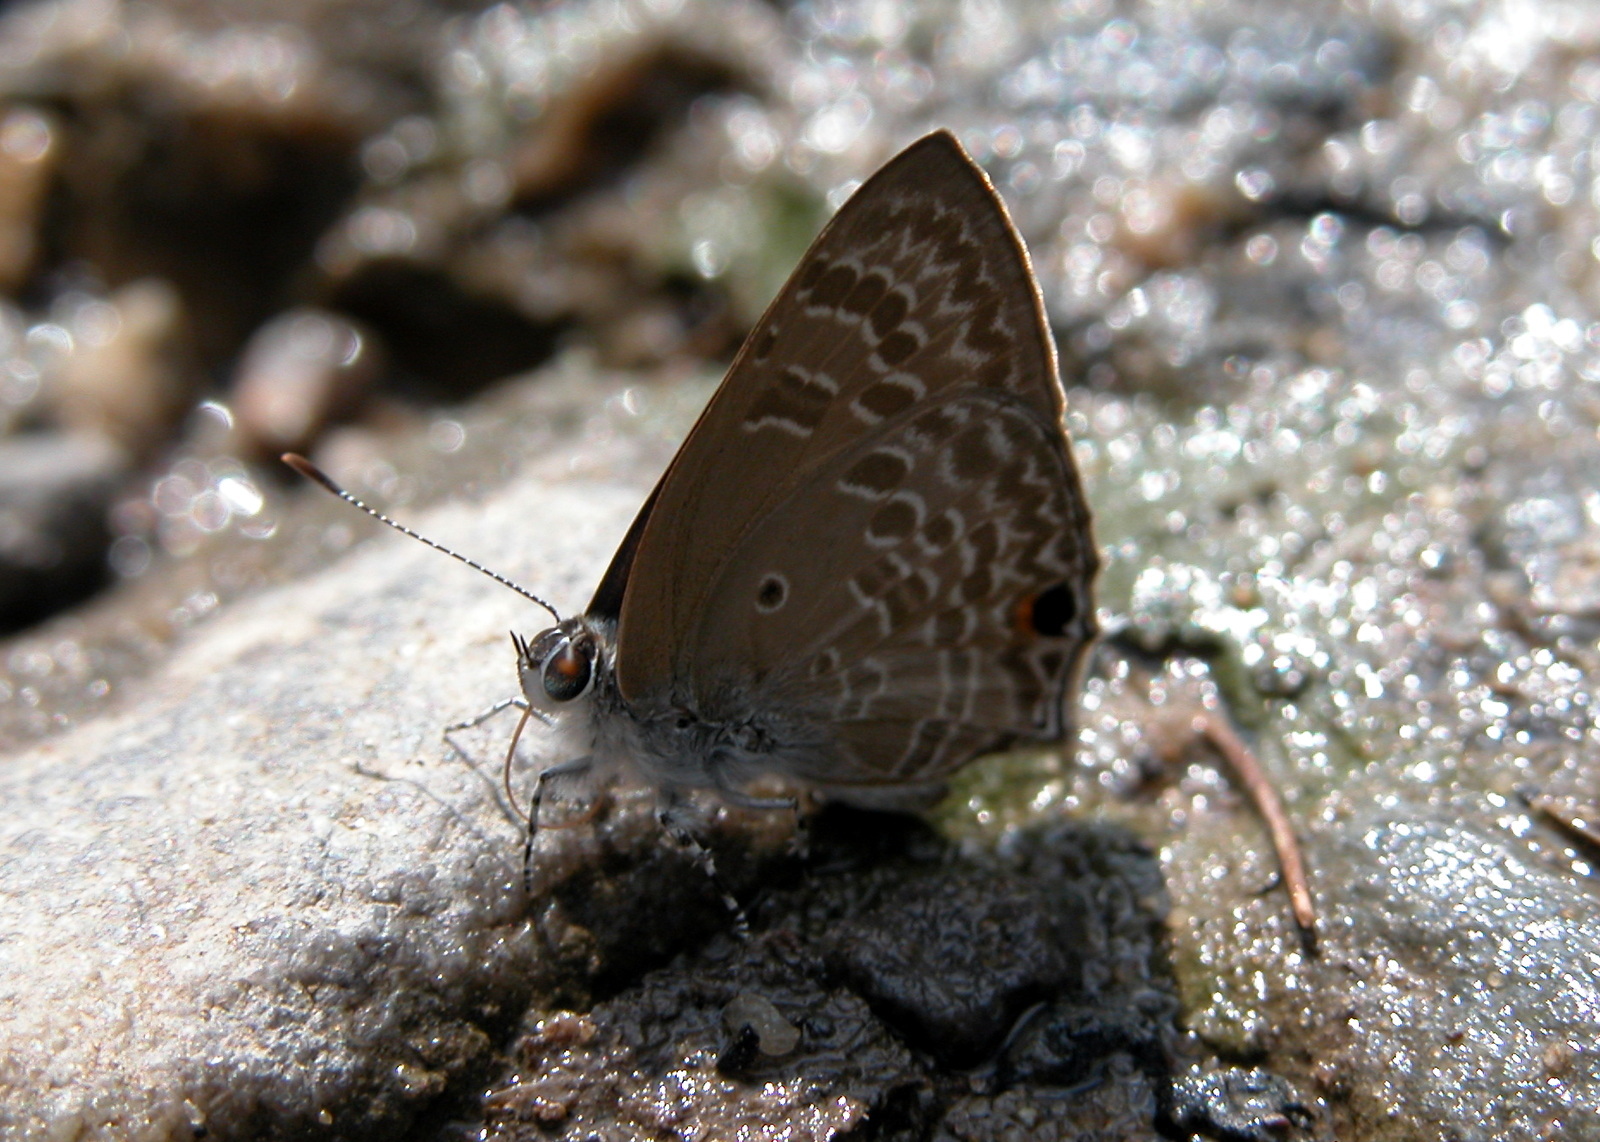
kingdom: Animalia
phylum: Arthropoda
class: Insecta
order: Lepidoptera
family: Lycaenidae
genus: Anthene
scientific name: Anthene lycaenina
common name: Pointed ciliate blue
